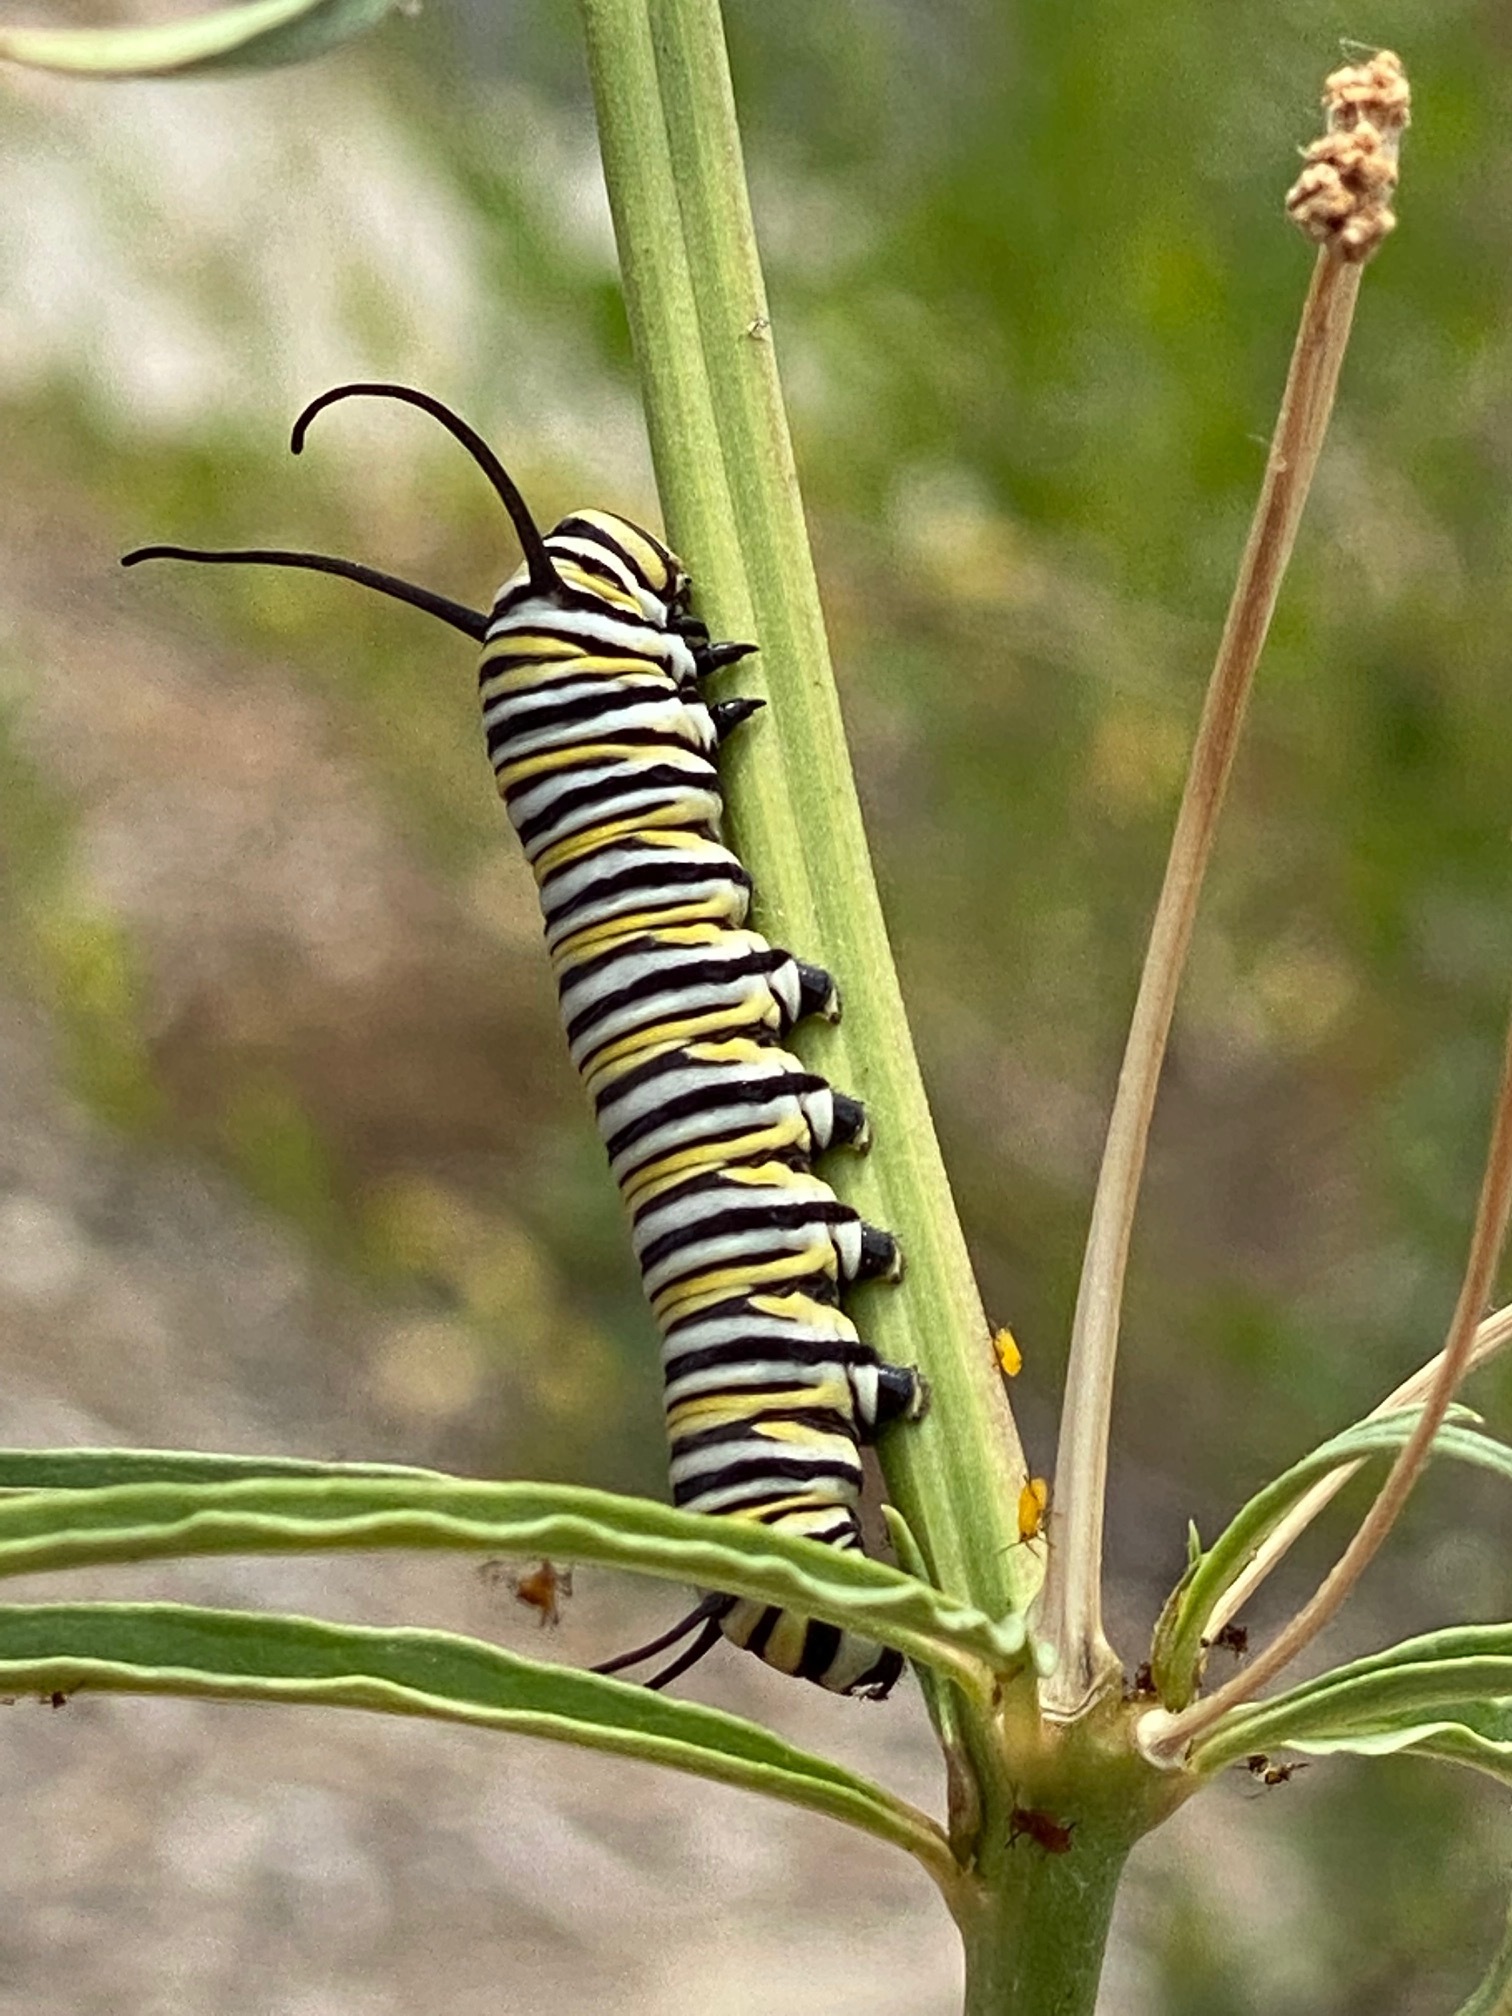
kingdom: Animalia
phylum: Arthropoda
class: Insecta
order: Lepidoptera
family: Nymphalidae
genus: Danaus
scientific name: Danaus plexippus
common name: Monarch
